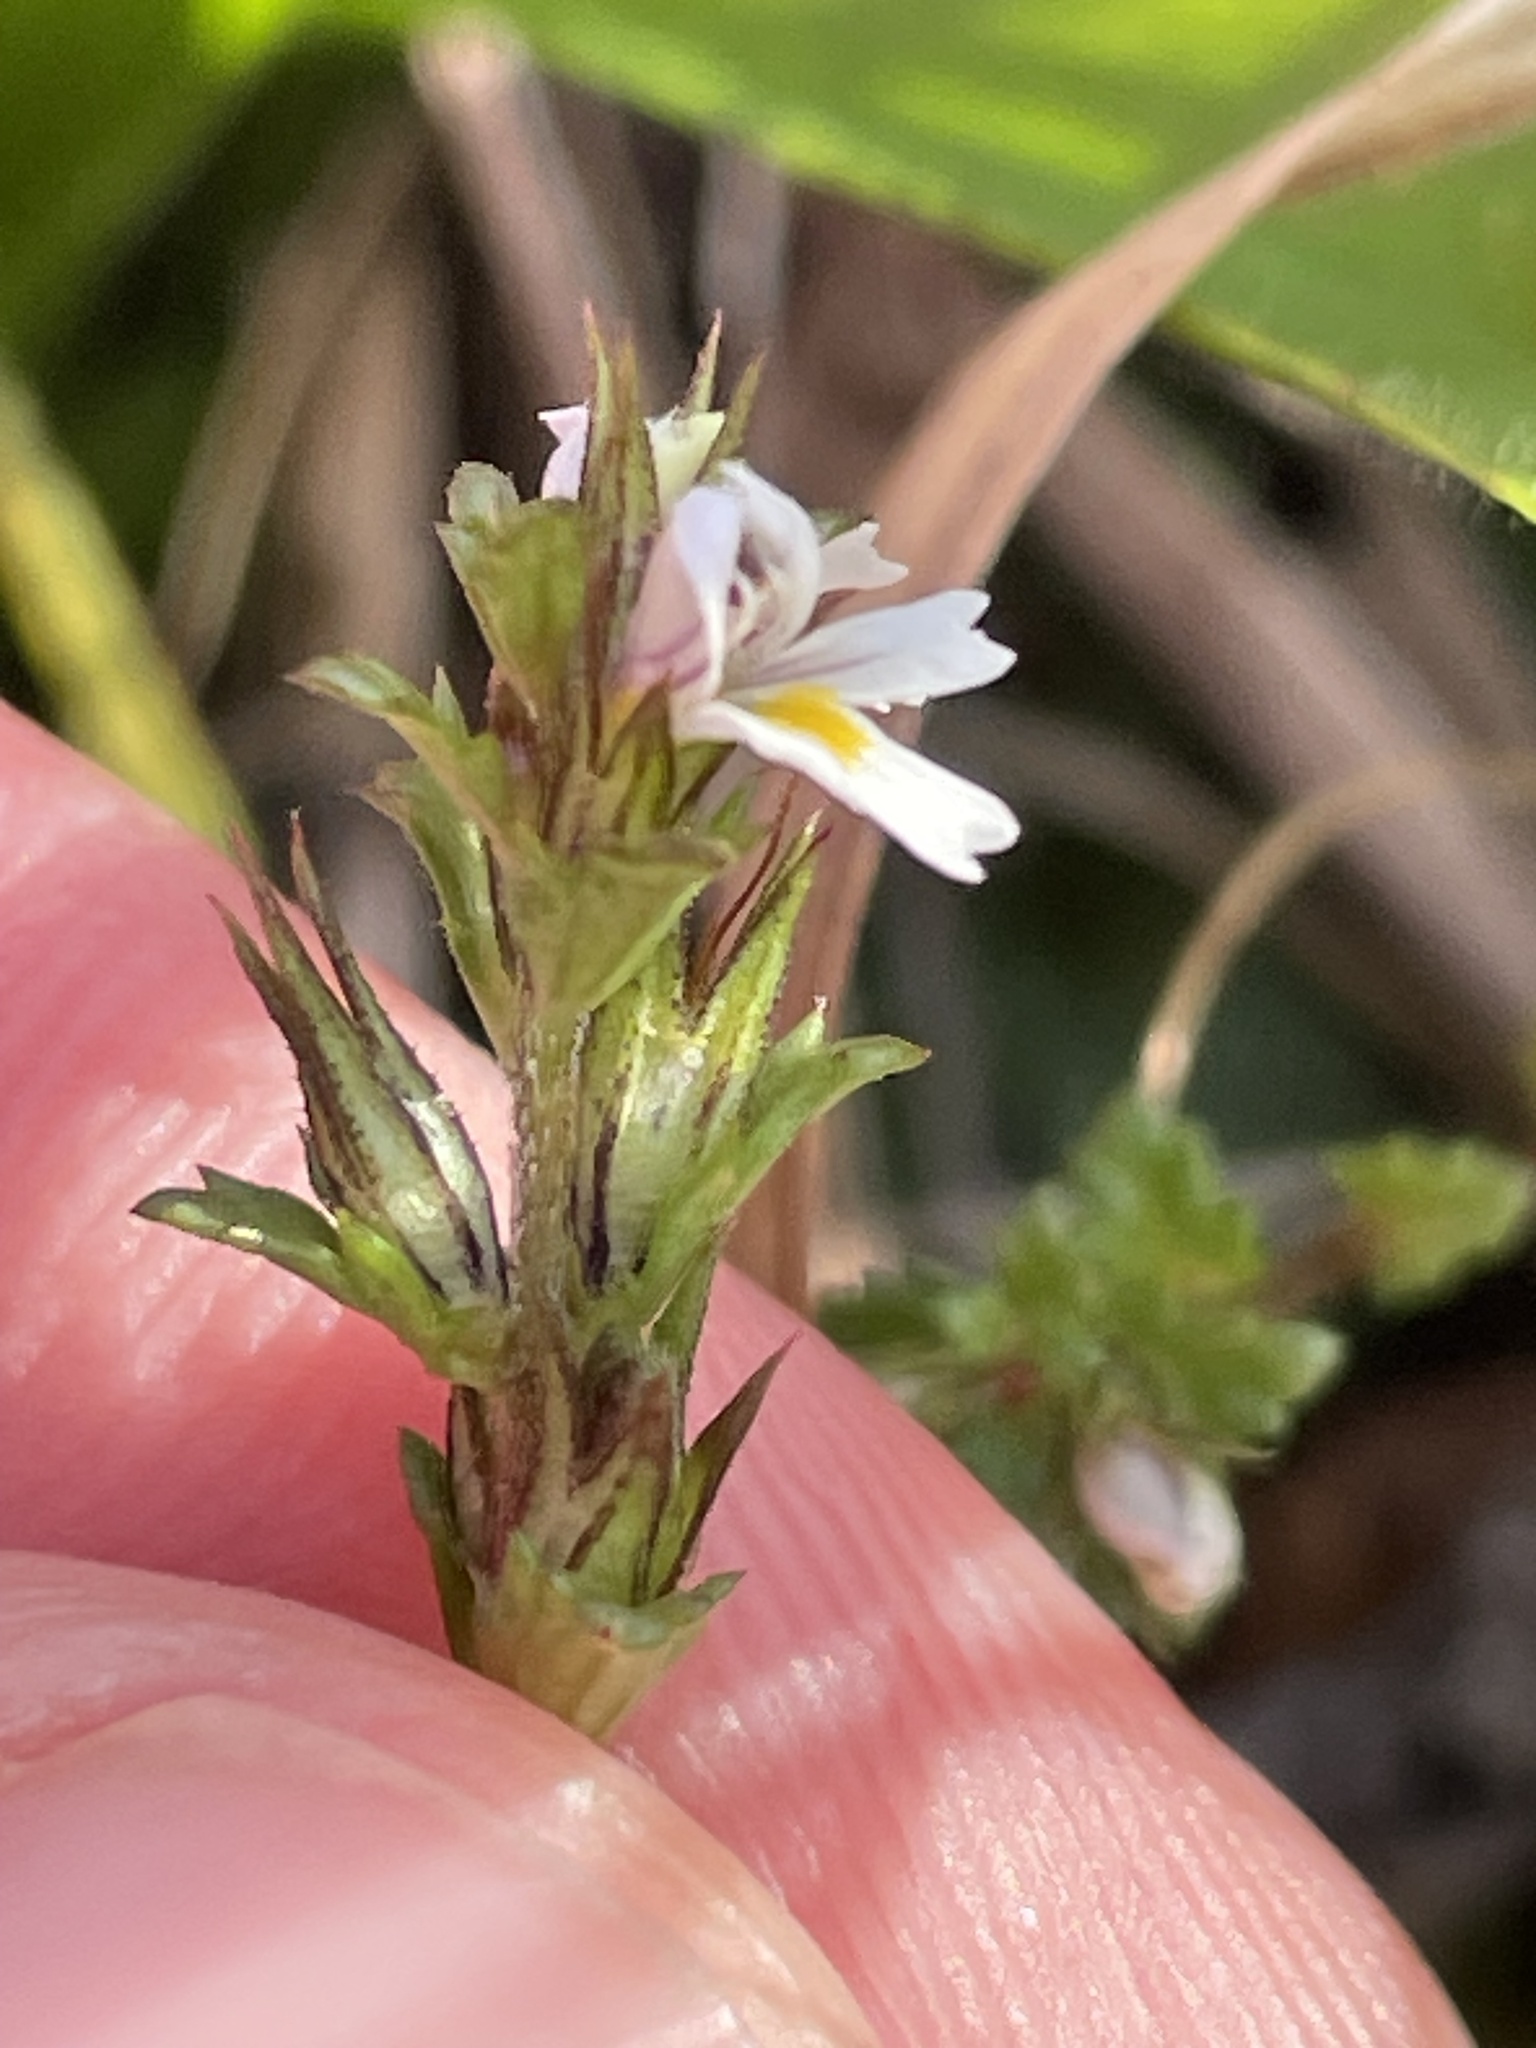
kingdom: Plantae
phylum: Tracheophyta
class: Magnoliopsida
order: Lamiales
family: Orobanchaceae
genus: Euphrasia
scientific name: Euphrasia nemorosa
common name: Common eyebright
